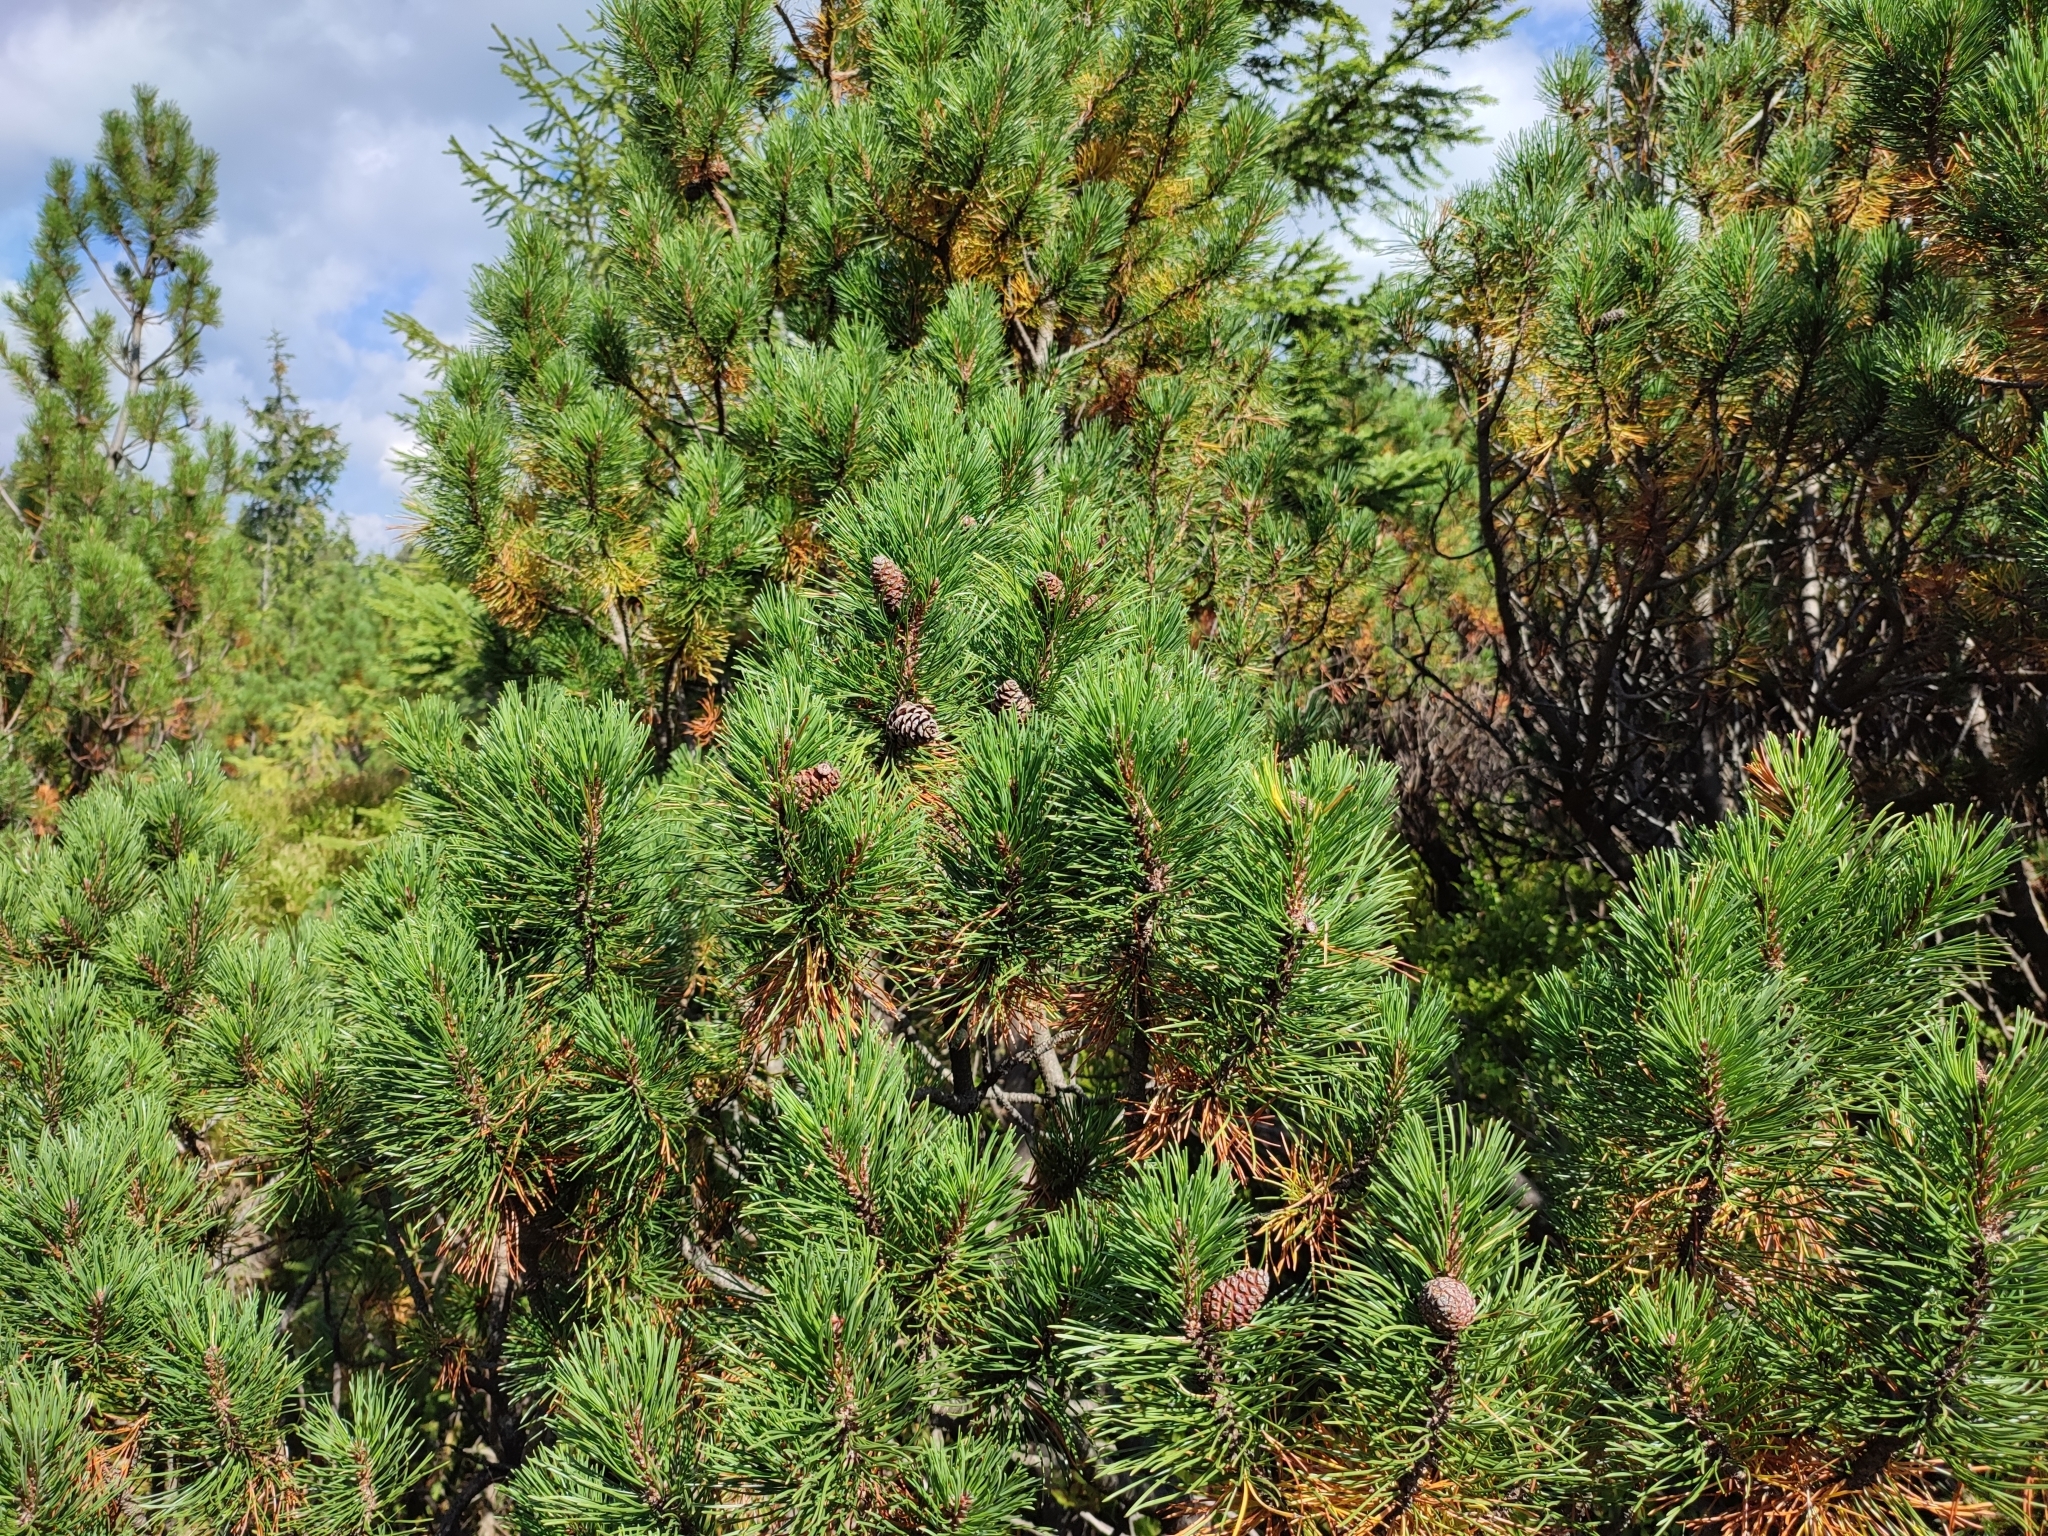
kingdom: Plantae
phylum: Tracheophyta
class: Pinopsida
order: Pinales
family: Pinaceae
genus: Pinus
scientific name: Pinus mugo
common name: Mugo pine
